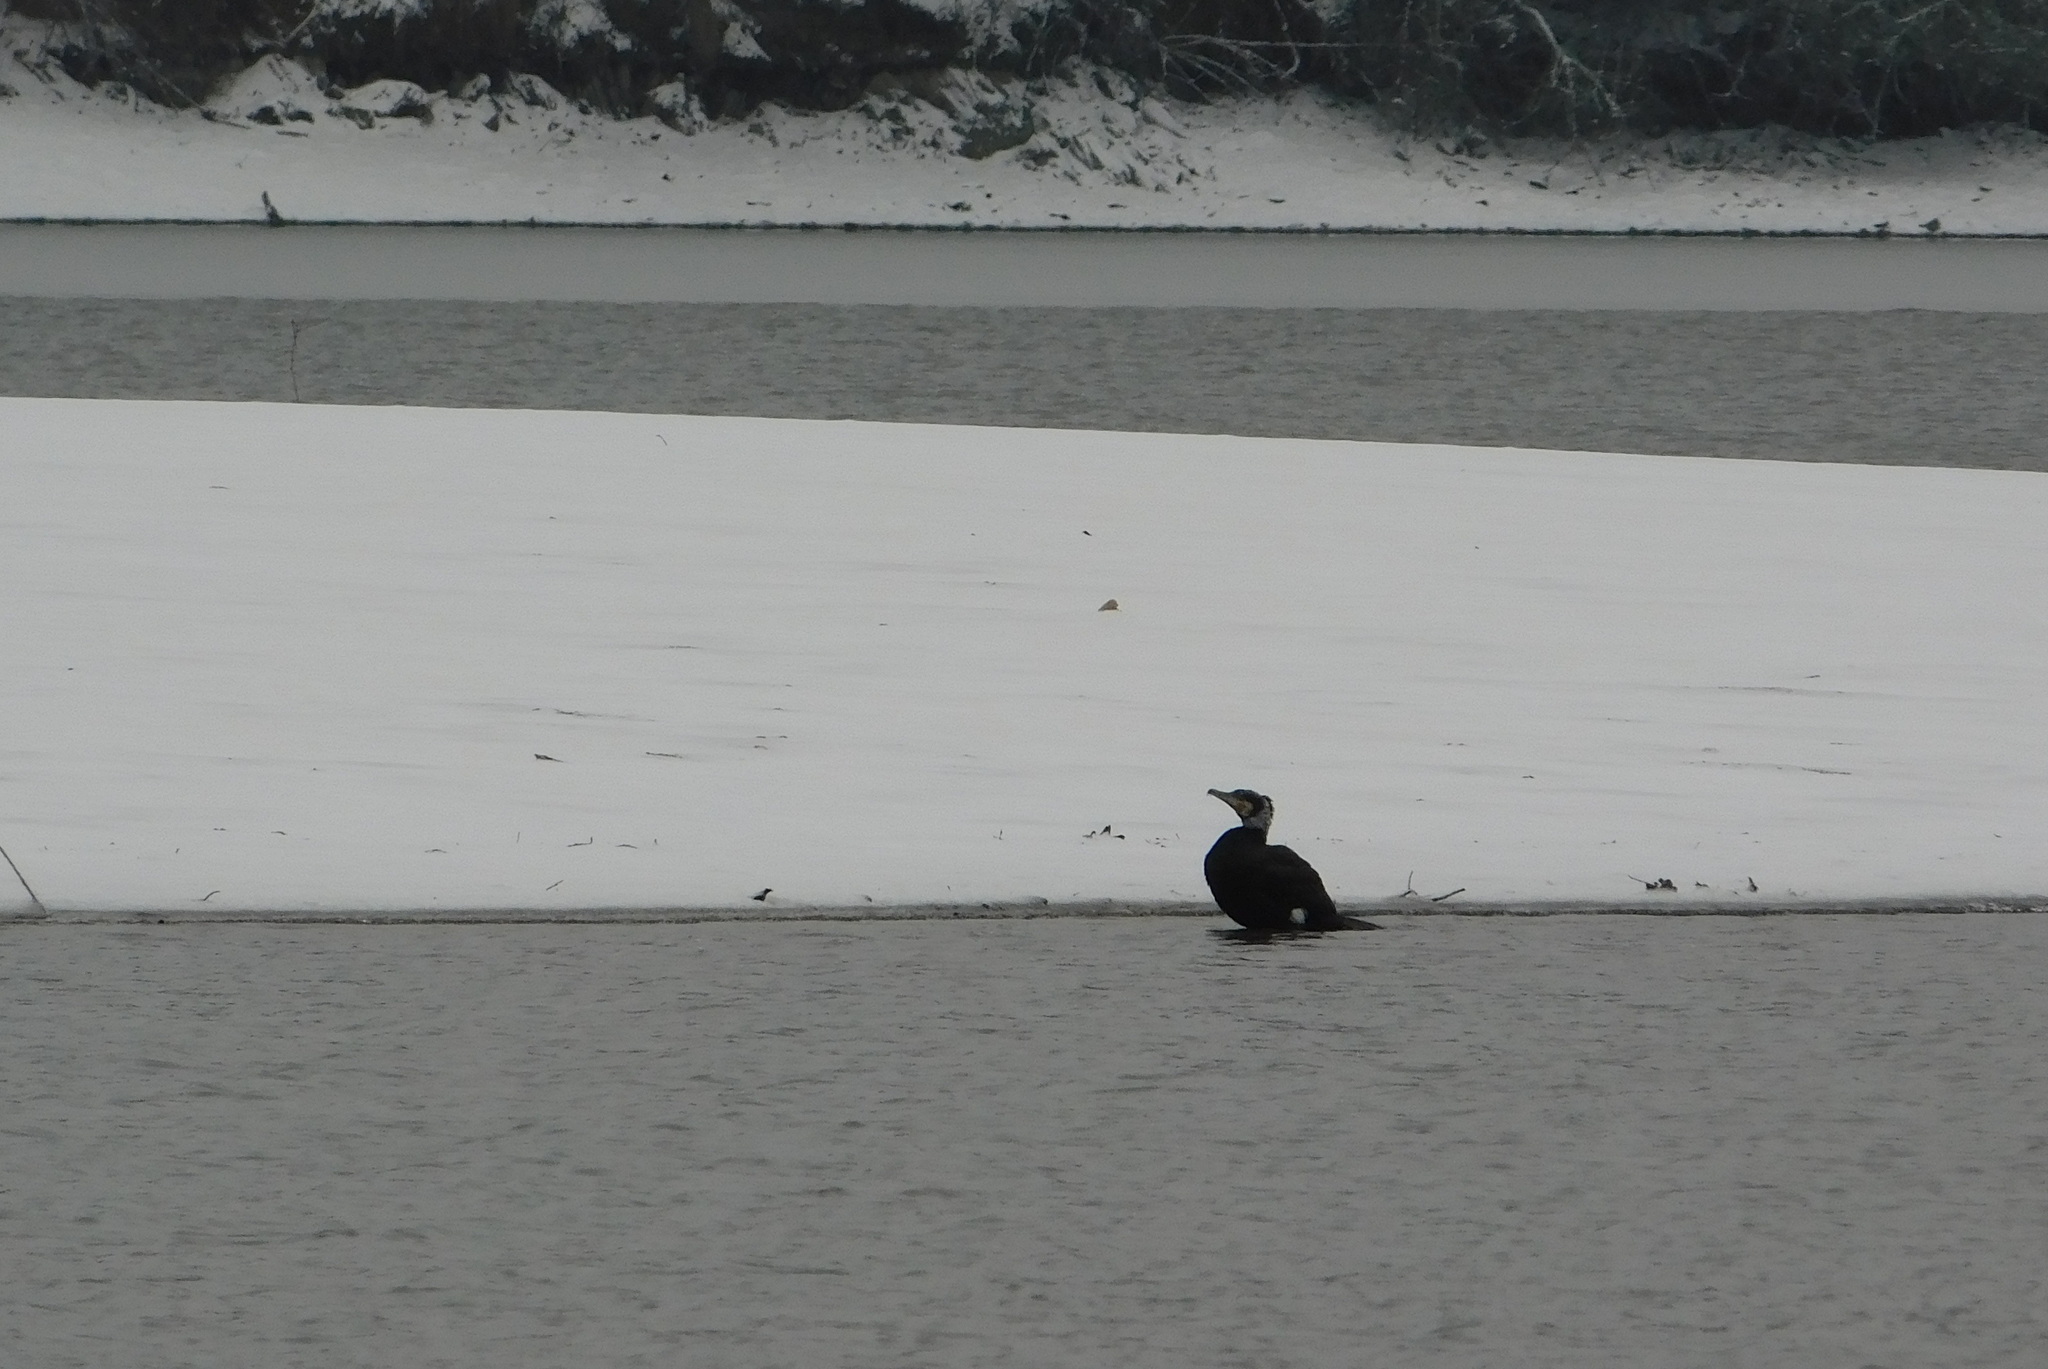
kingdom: Animalia
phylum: Chordata
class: Aves
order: Suliformes
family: Phalacrocoracidae
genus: Phalacrocorax
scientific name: Phalacrocorax carbo
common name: Great cormorant
